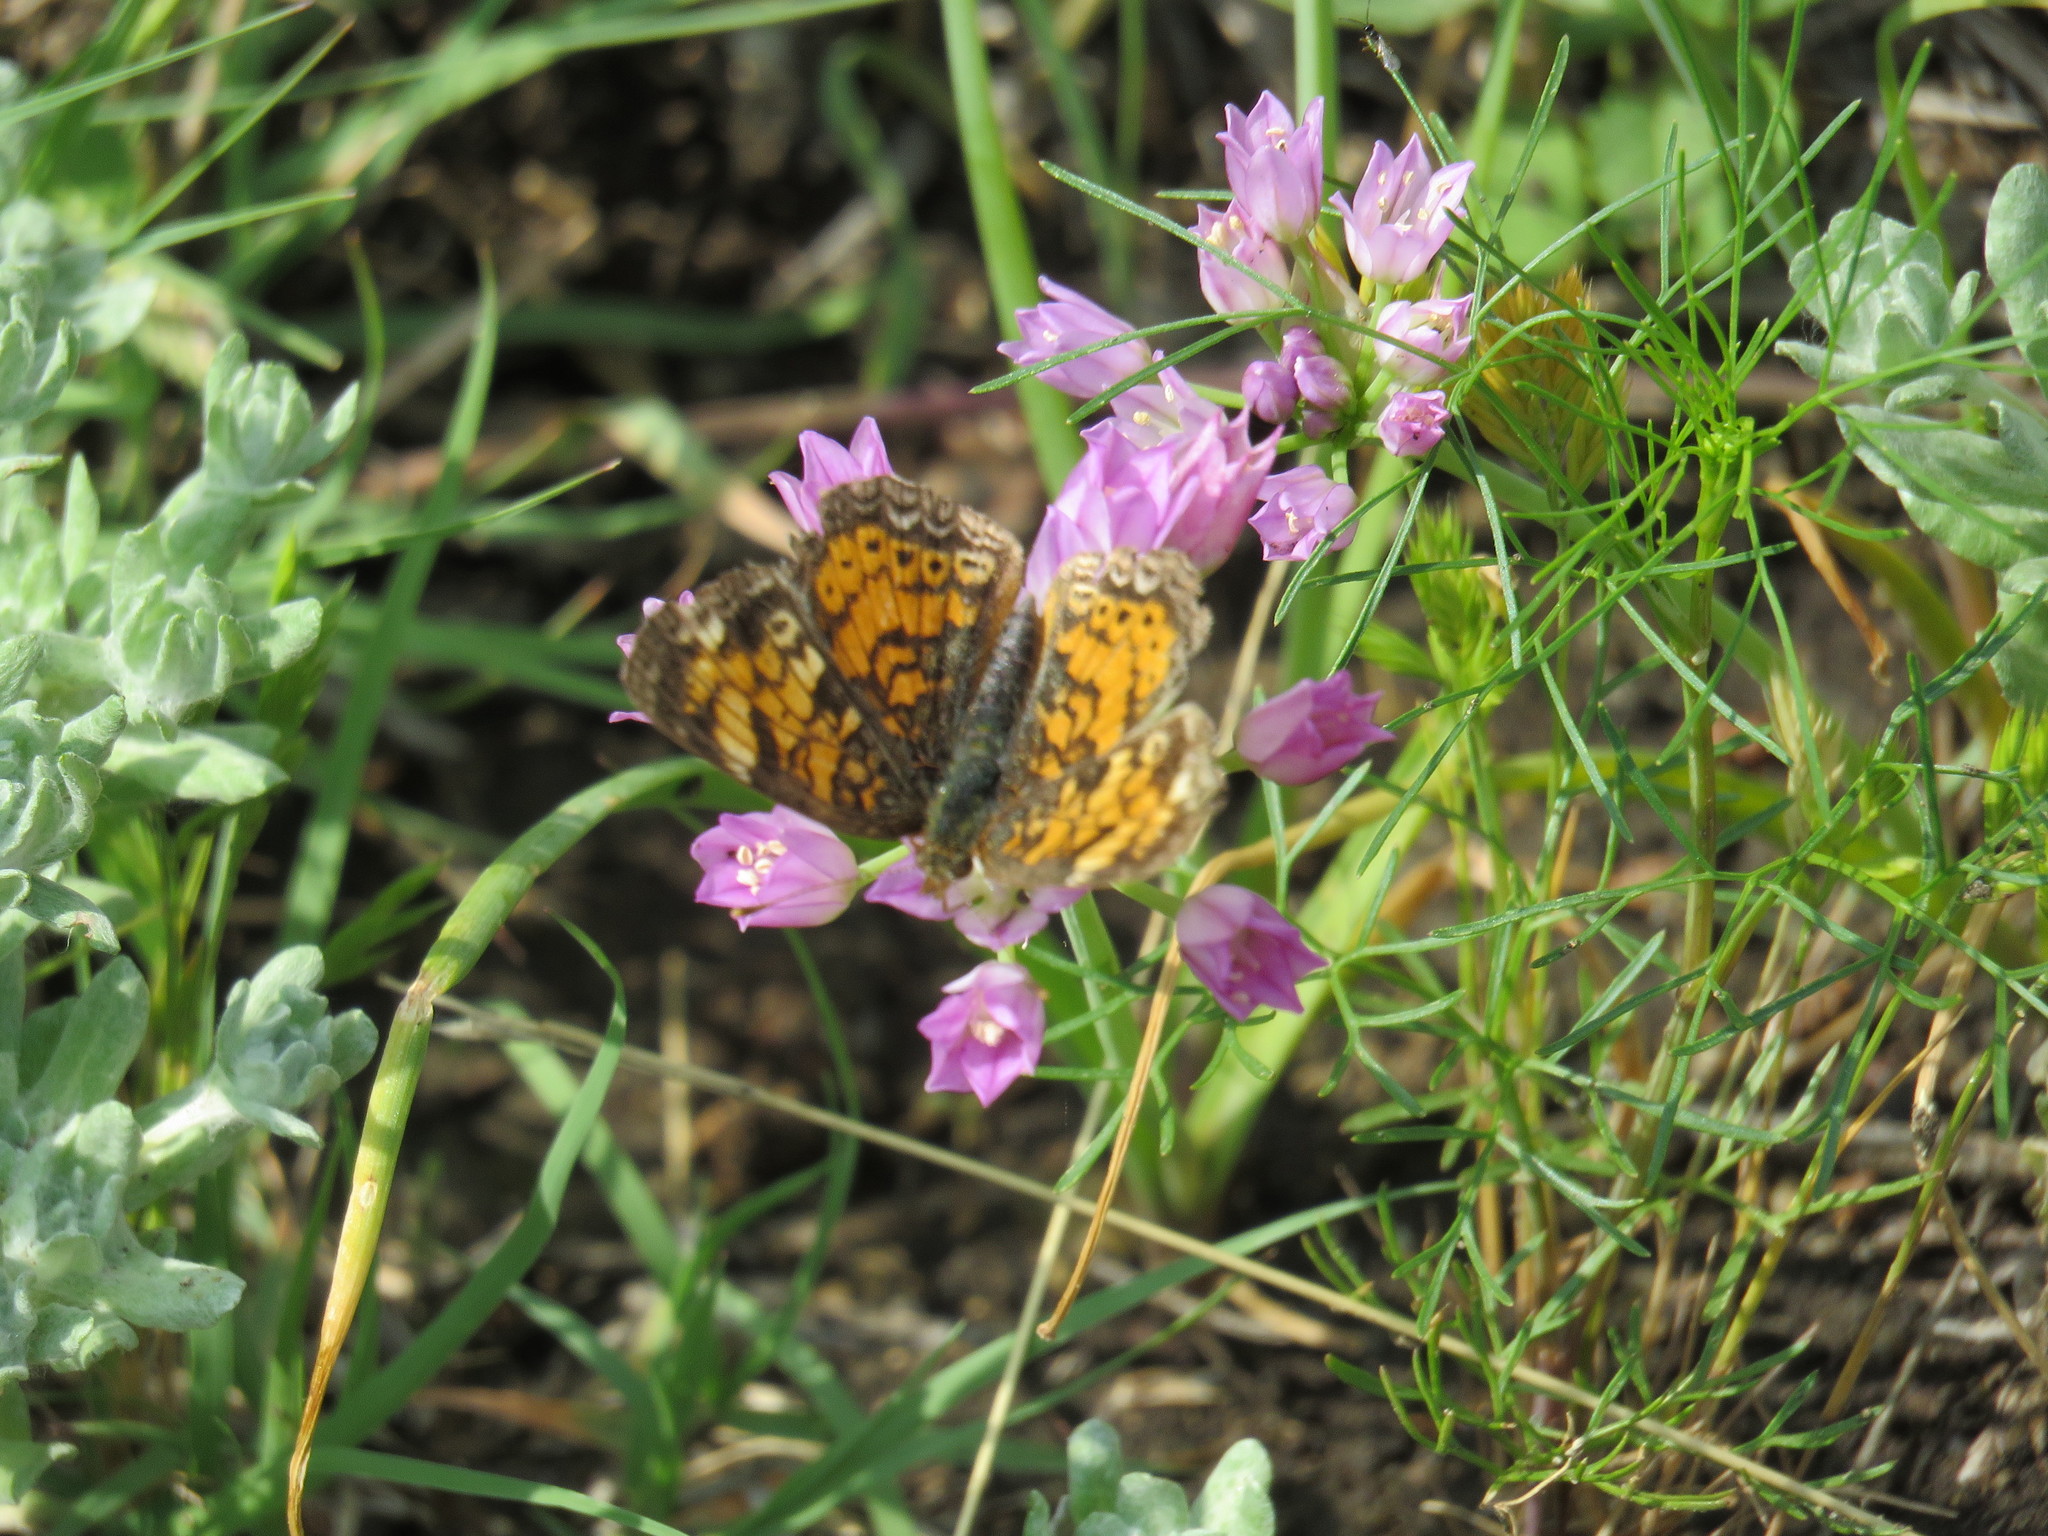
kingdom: Animalia
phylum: Arthropoda
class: Insecta
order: Lepidoptera
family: Nymphalidae
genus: Phyciodes
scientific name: Phyciodes tharos
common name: Pearl crescent
